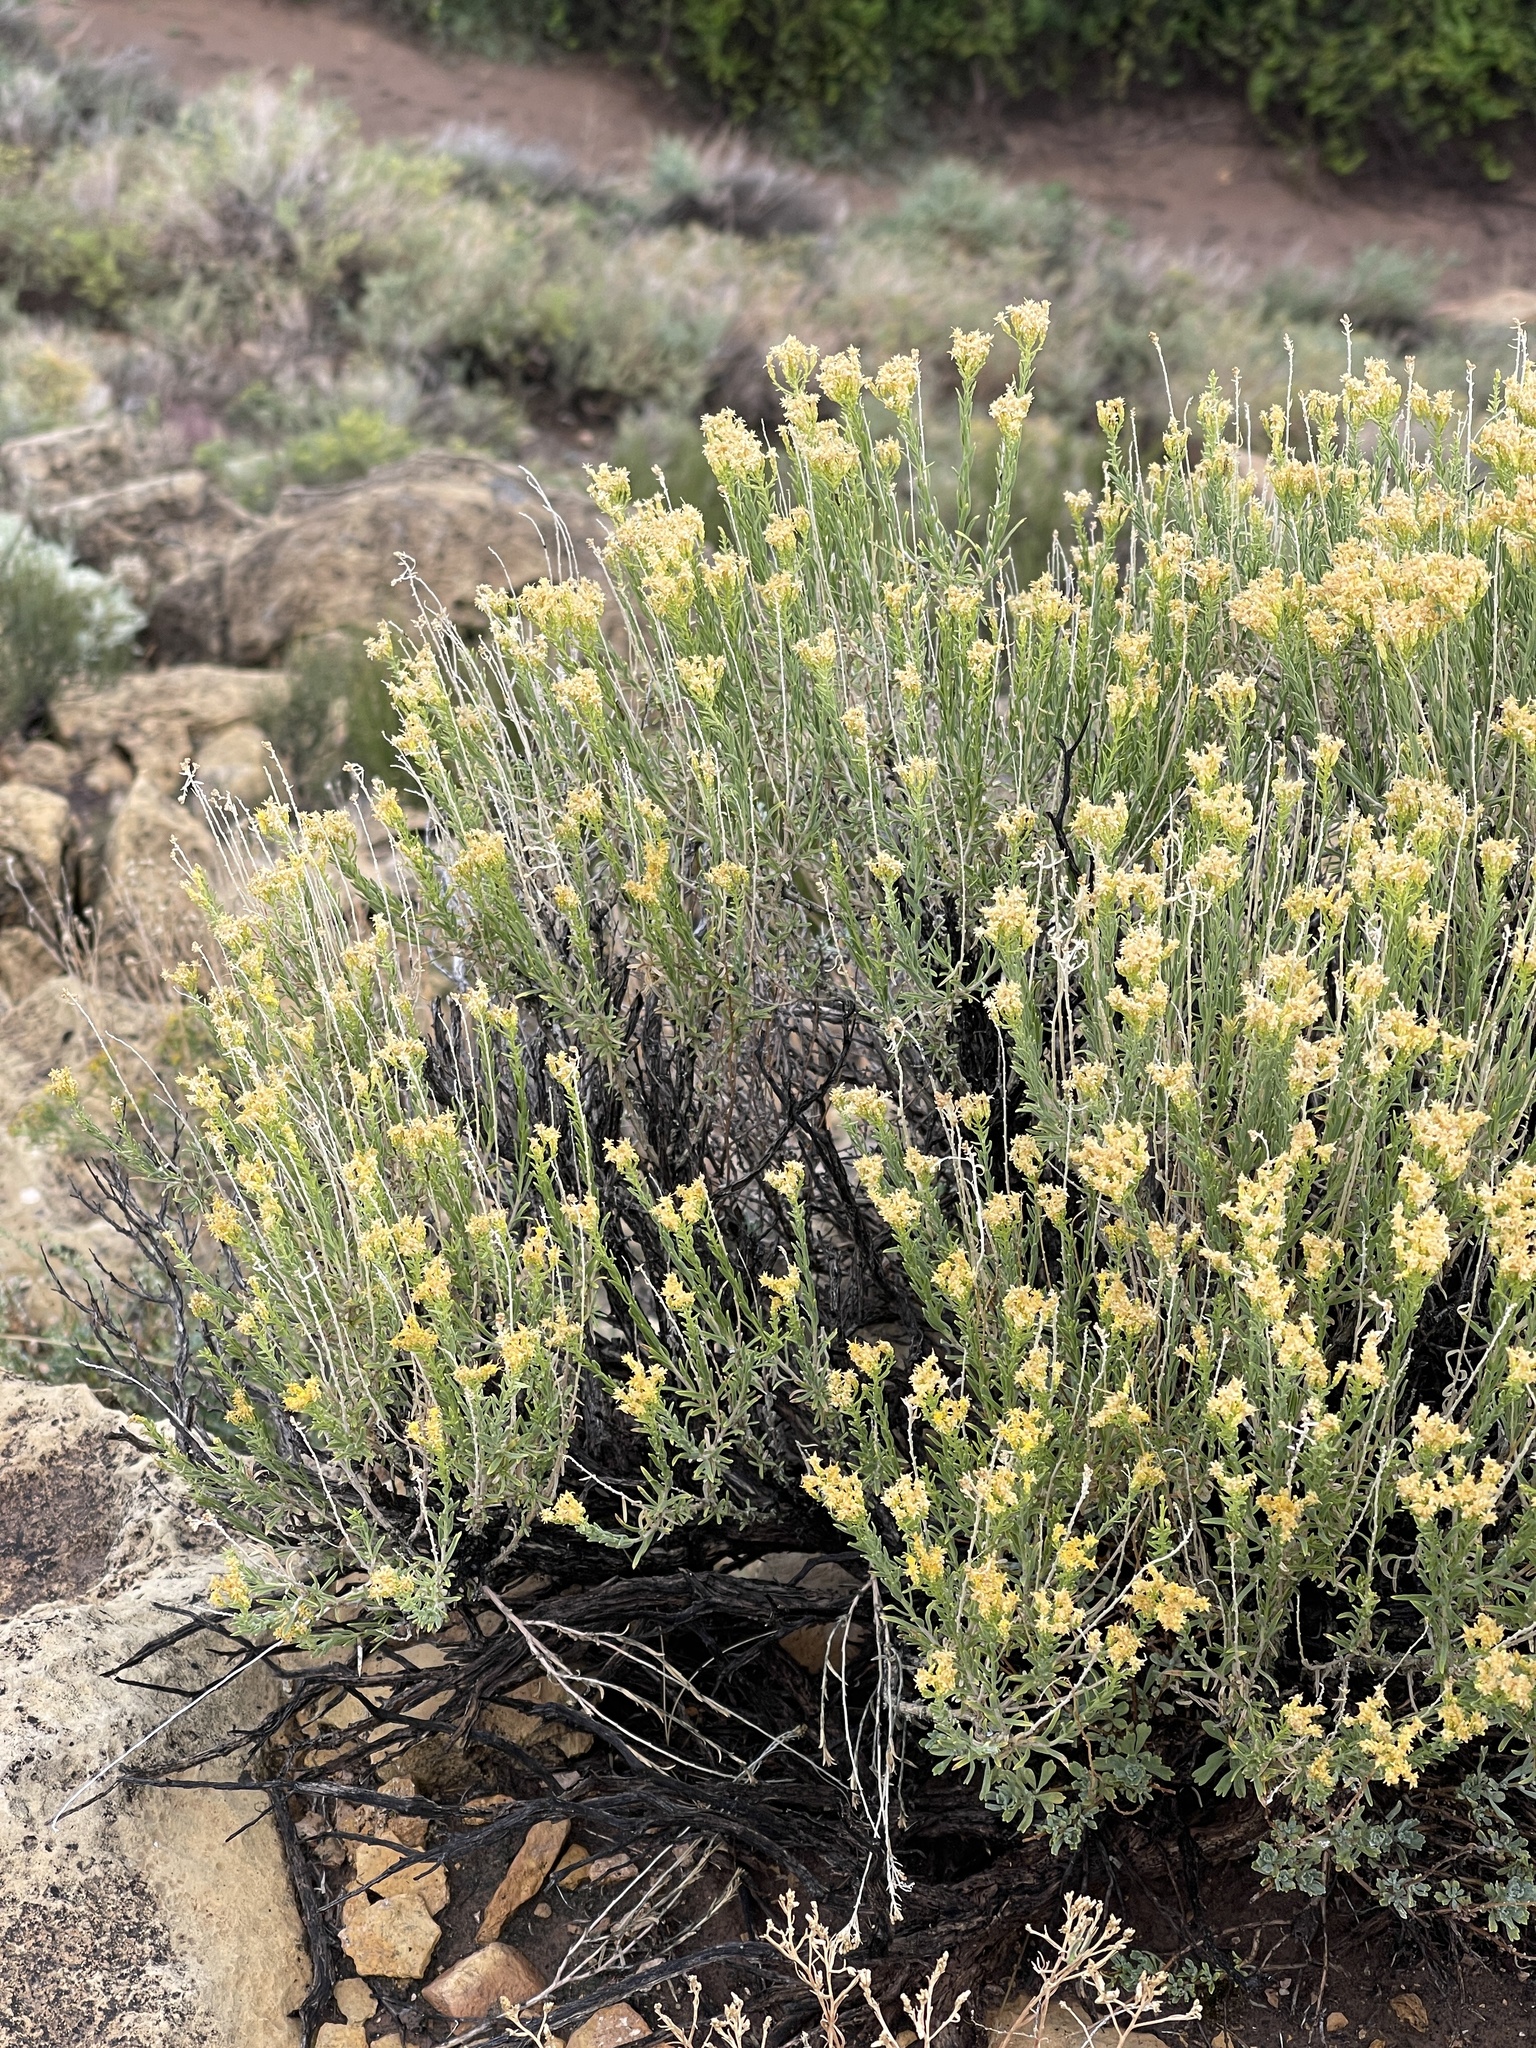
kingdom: Plantae
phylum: Tracheophyta
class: Magnoliopsida
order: Asterales
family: Asteraceae
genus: Chrysothamnus
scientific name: Chrysothamnus viscidiflorus
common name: Yellow rabbitbrush
